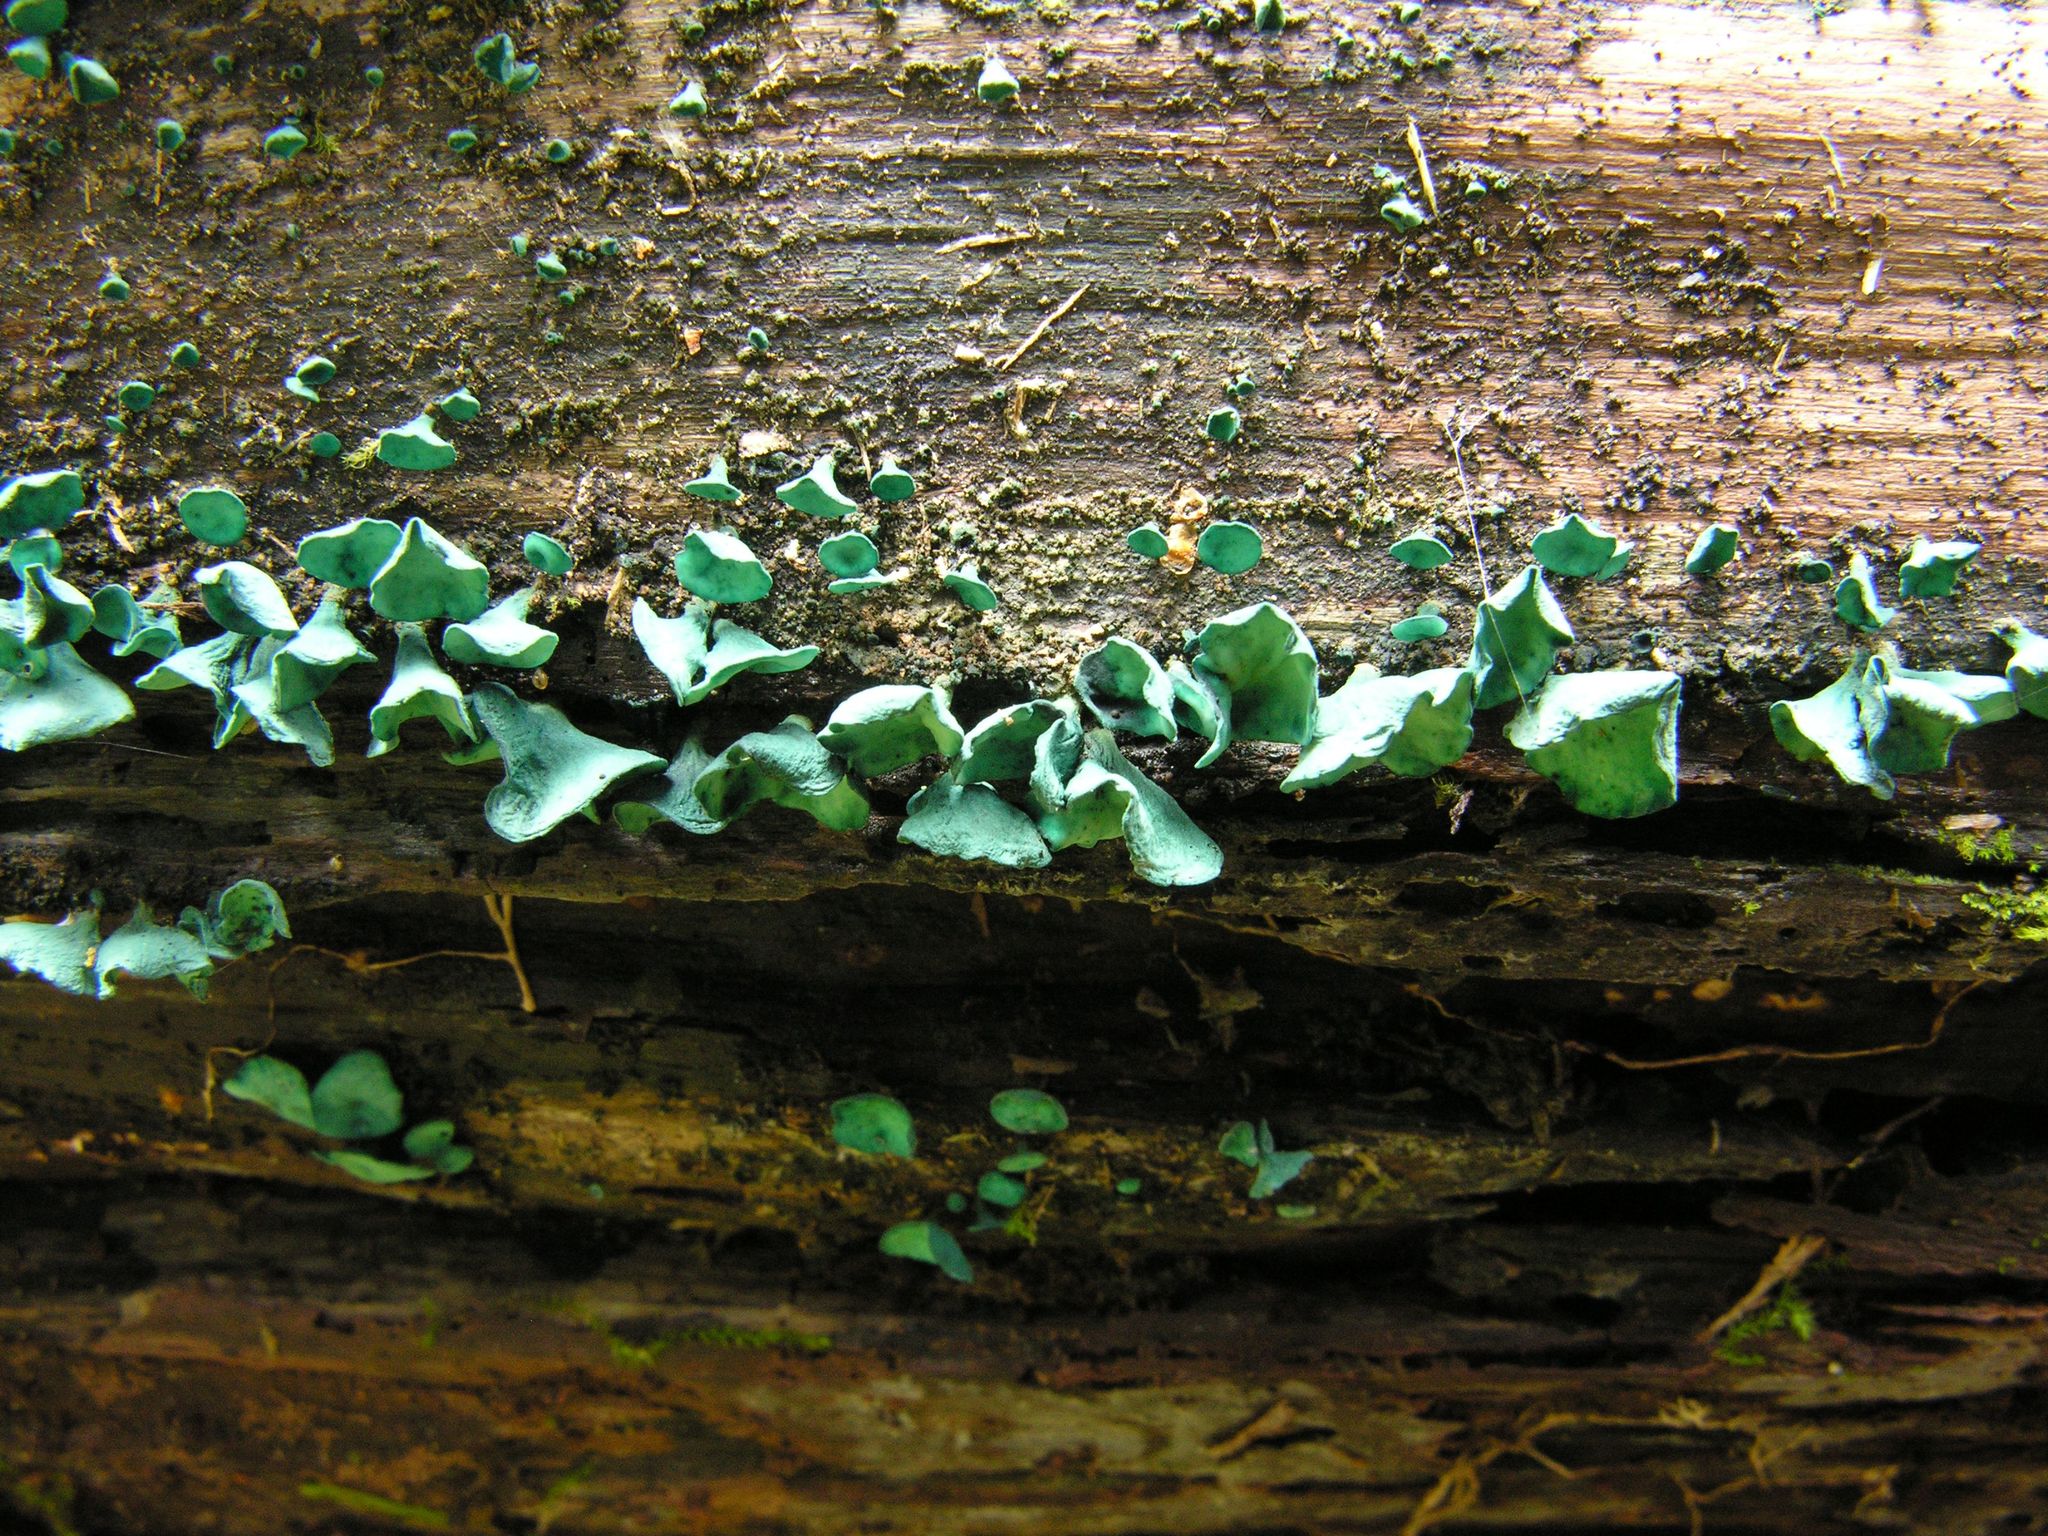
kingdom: Fungi
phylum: Ascomycota
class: Leotiomycetes
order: Helotiales
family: Chlorociboriaceae
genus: Chlorociboria
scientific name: Chlorociboria aeruginascens
